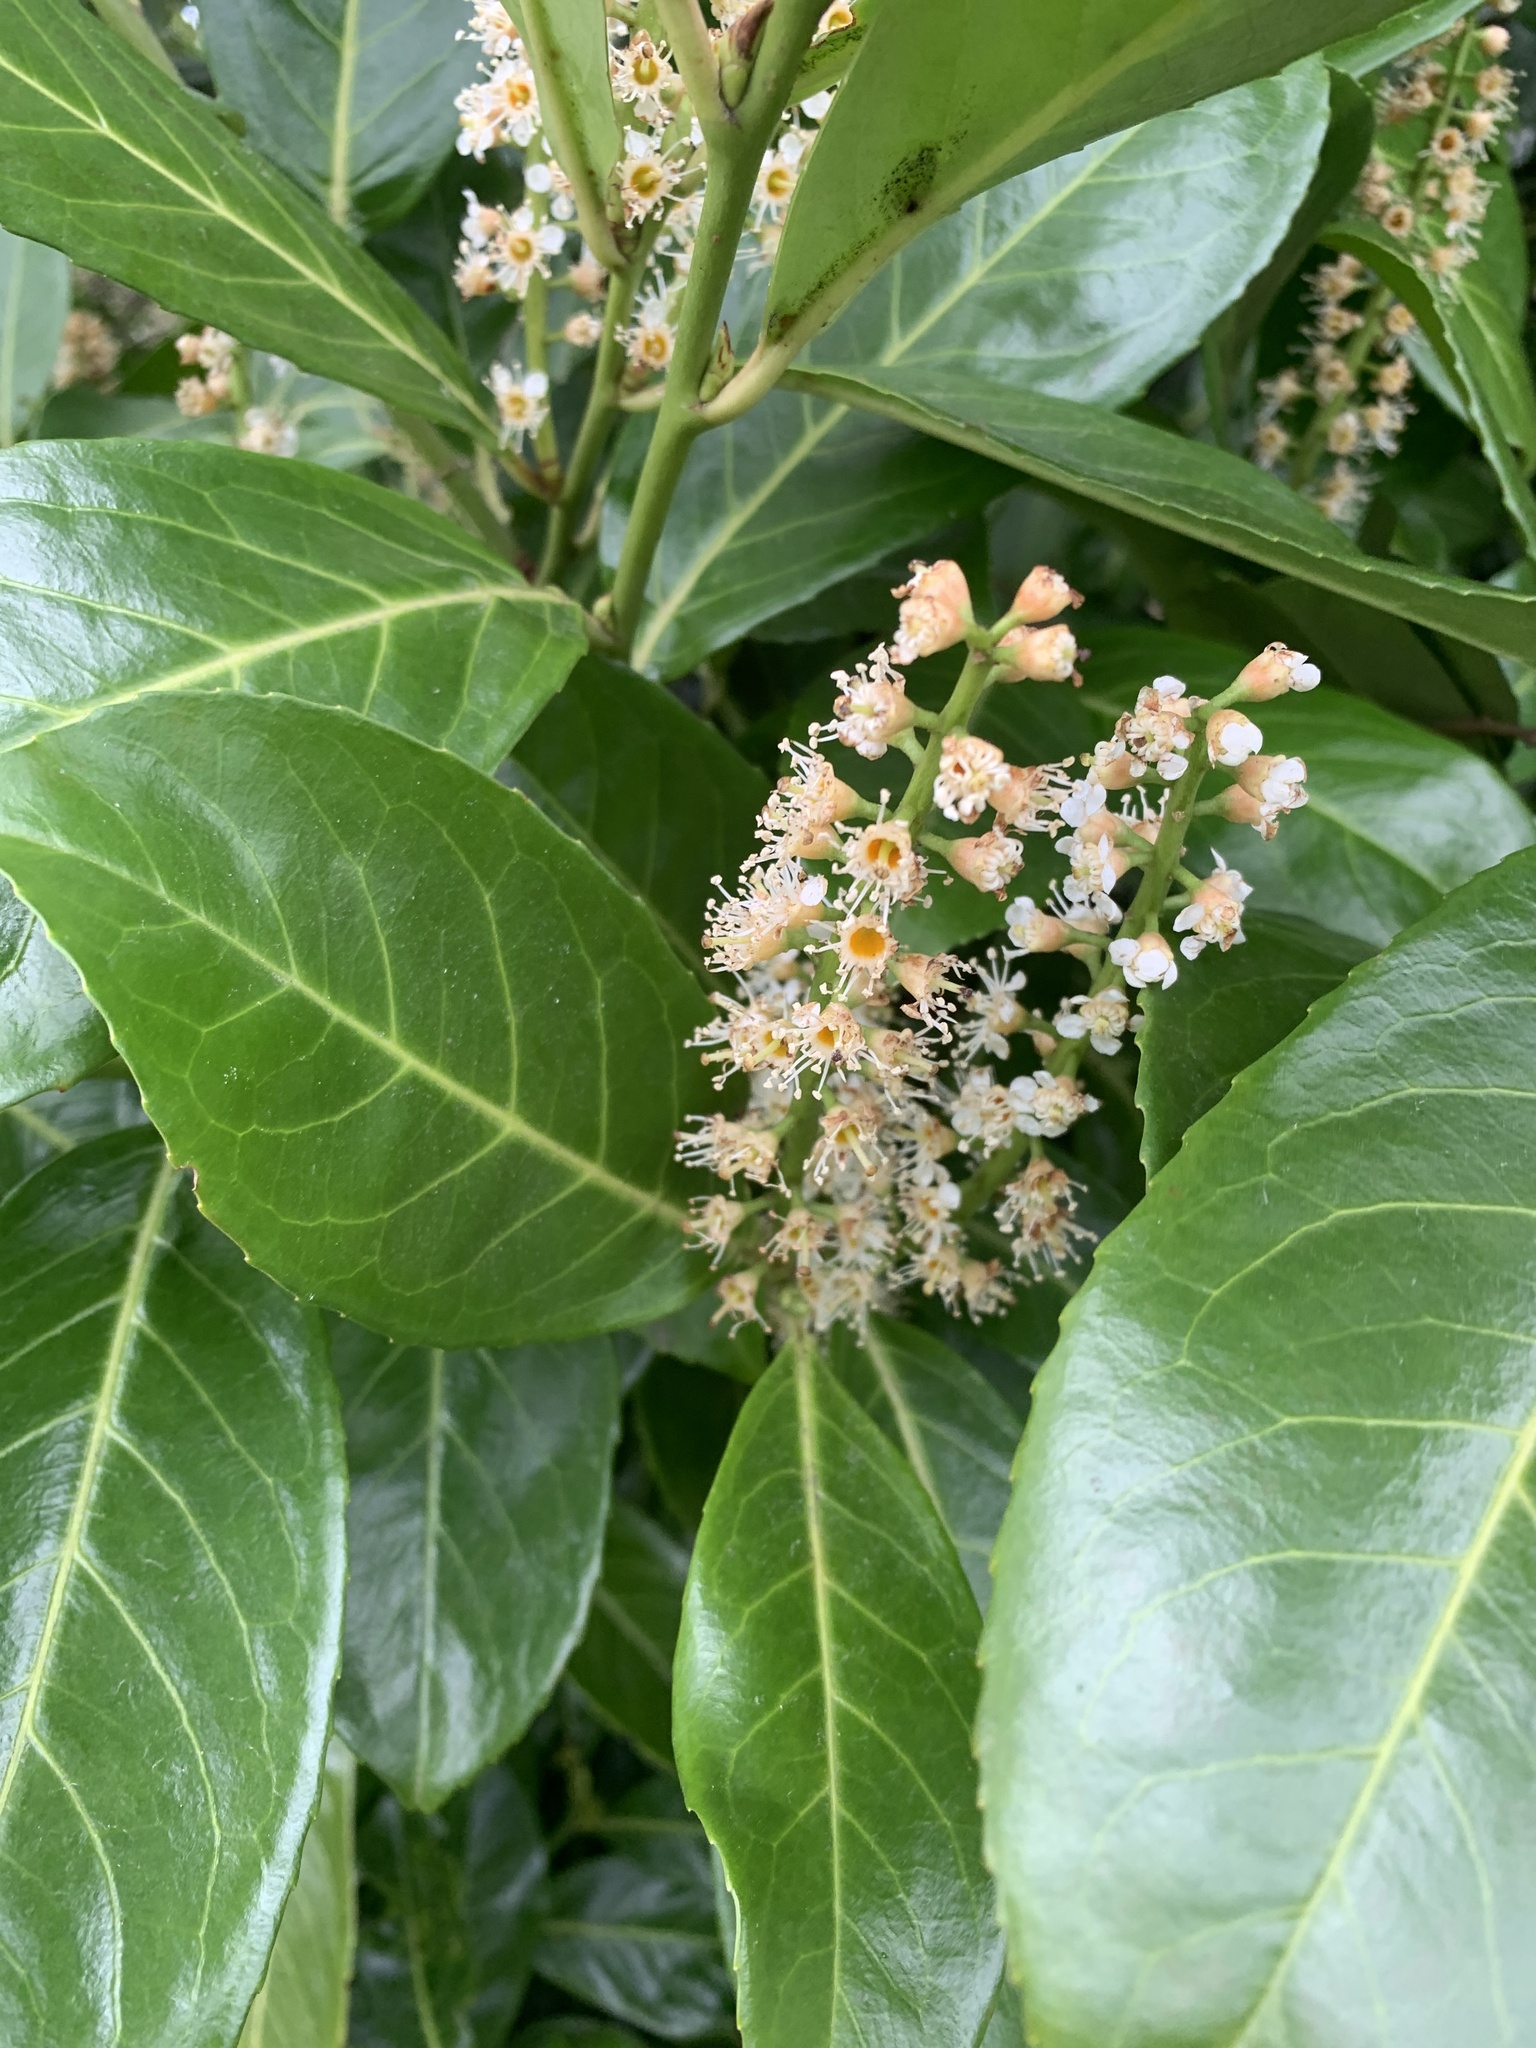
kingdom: Plantae
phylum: Tracheophyta
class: Magnoliopsida
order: Rosales
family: Rosaceae
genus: Prunus
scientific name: Prunus laurocerasus
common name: Cherry laurel
